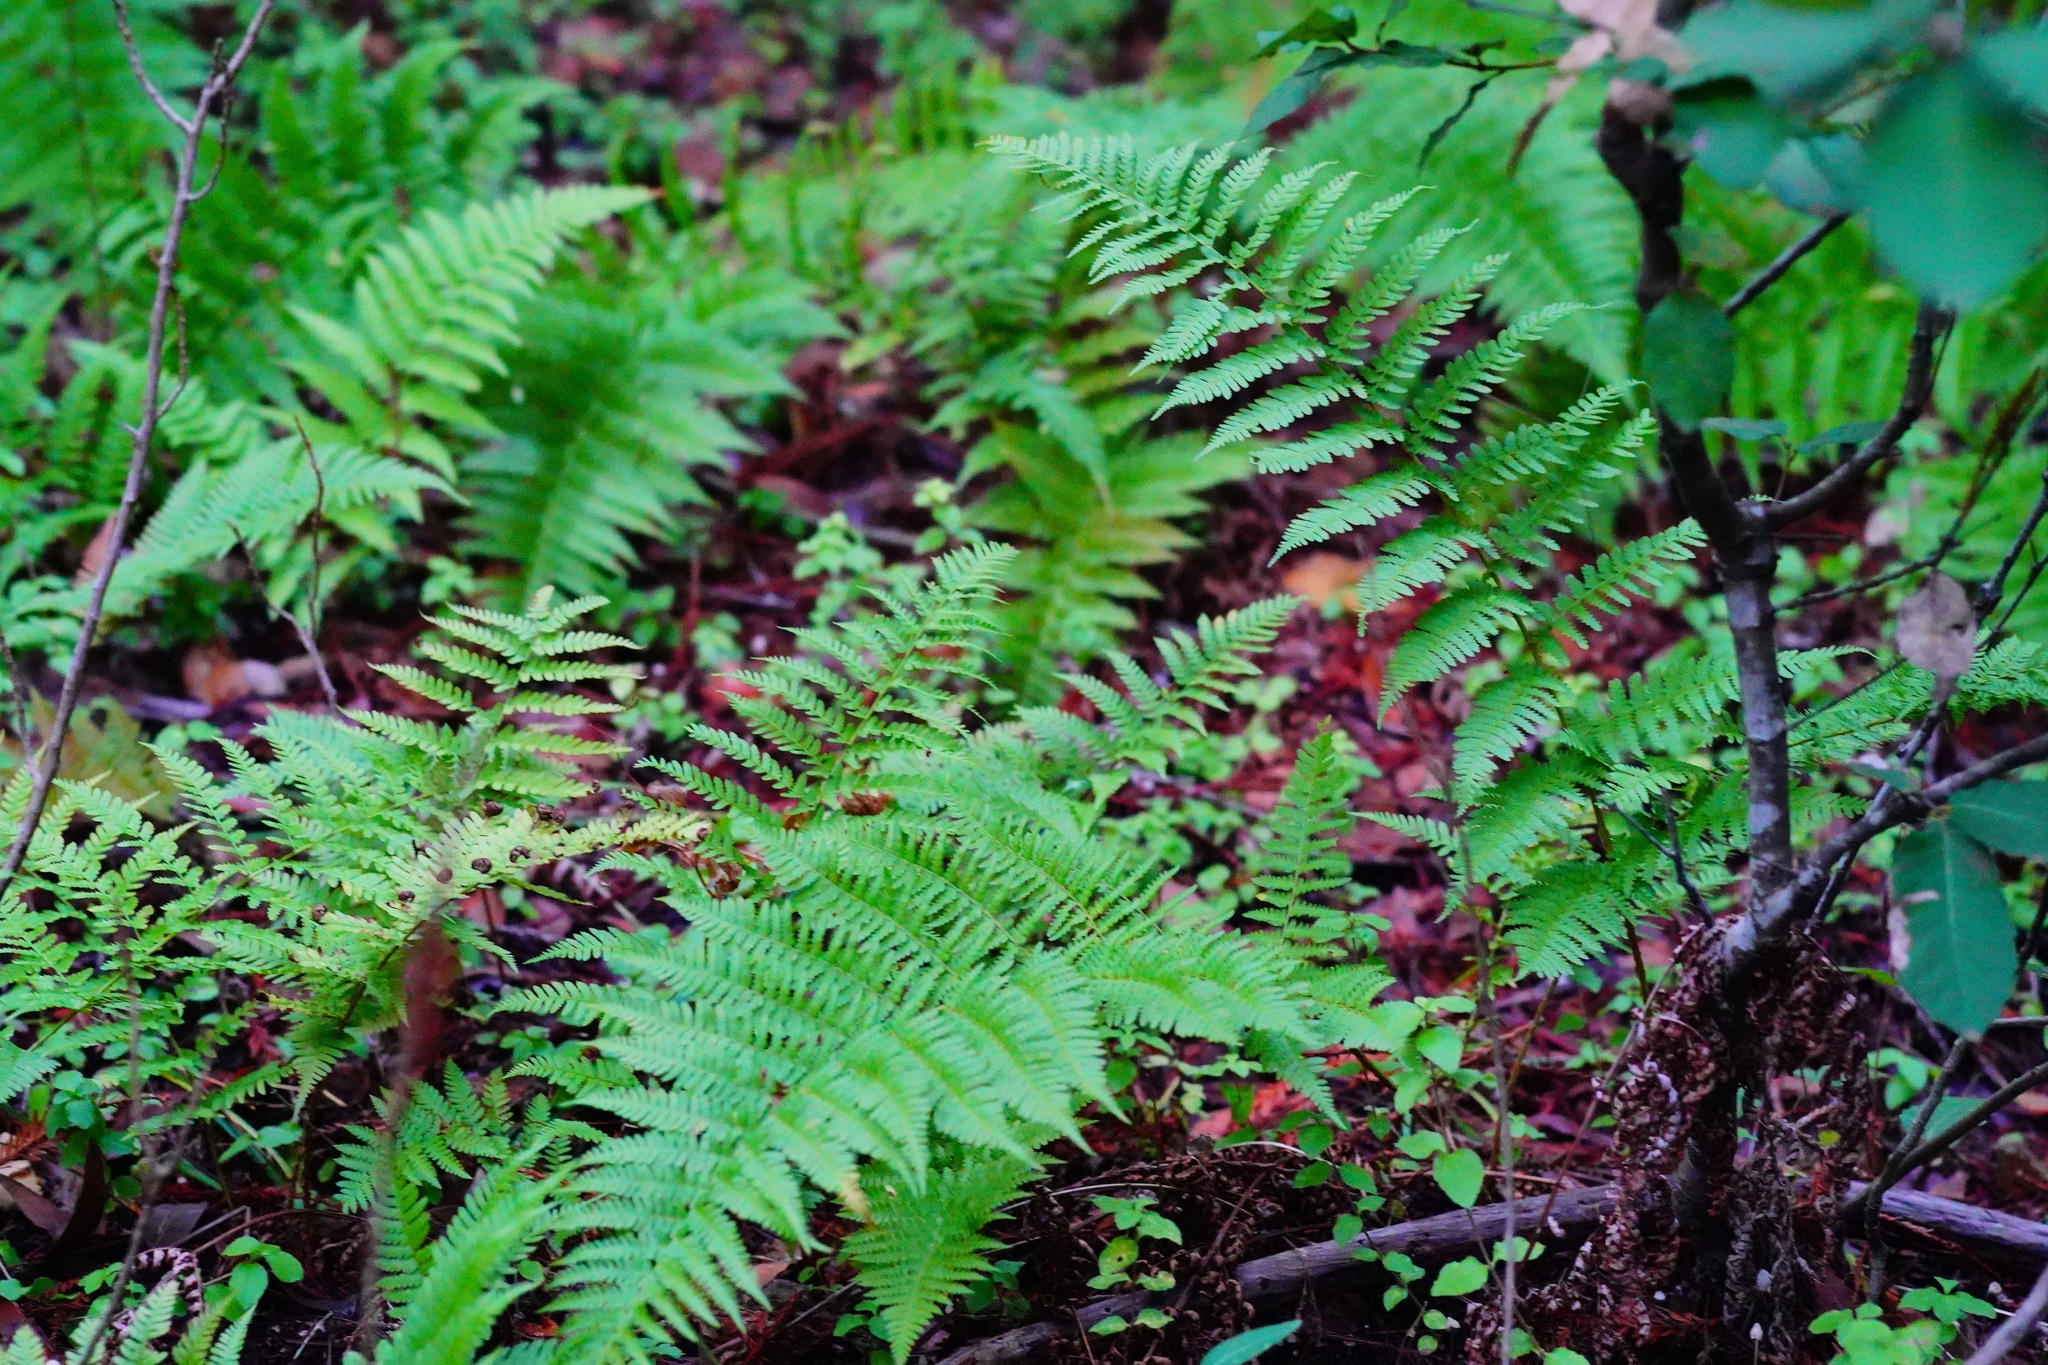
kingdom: Plantae
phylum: Tracheophyta
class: Polypodiopsida
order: Polypodiales
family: Dryopteridaceae
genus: Dryopteris
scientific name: Dryopteris arguta
